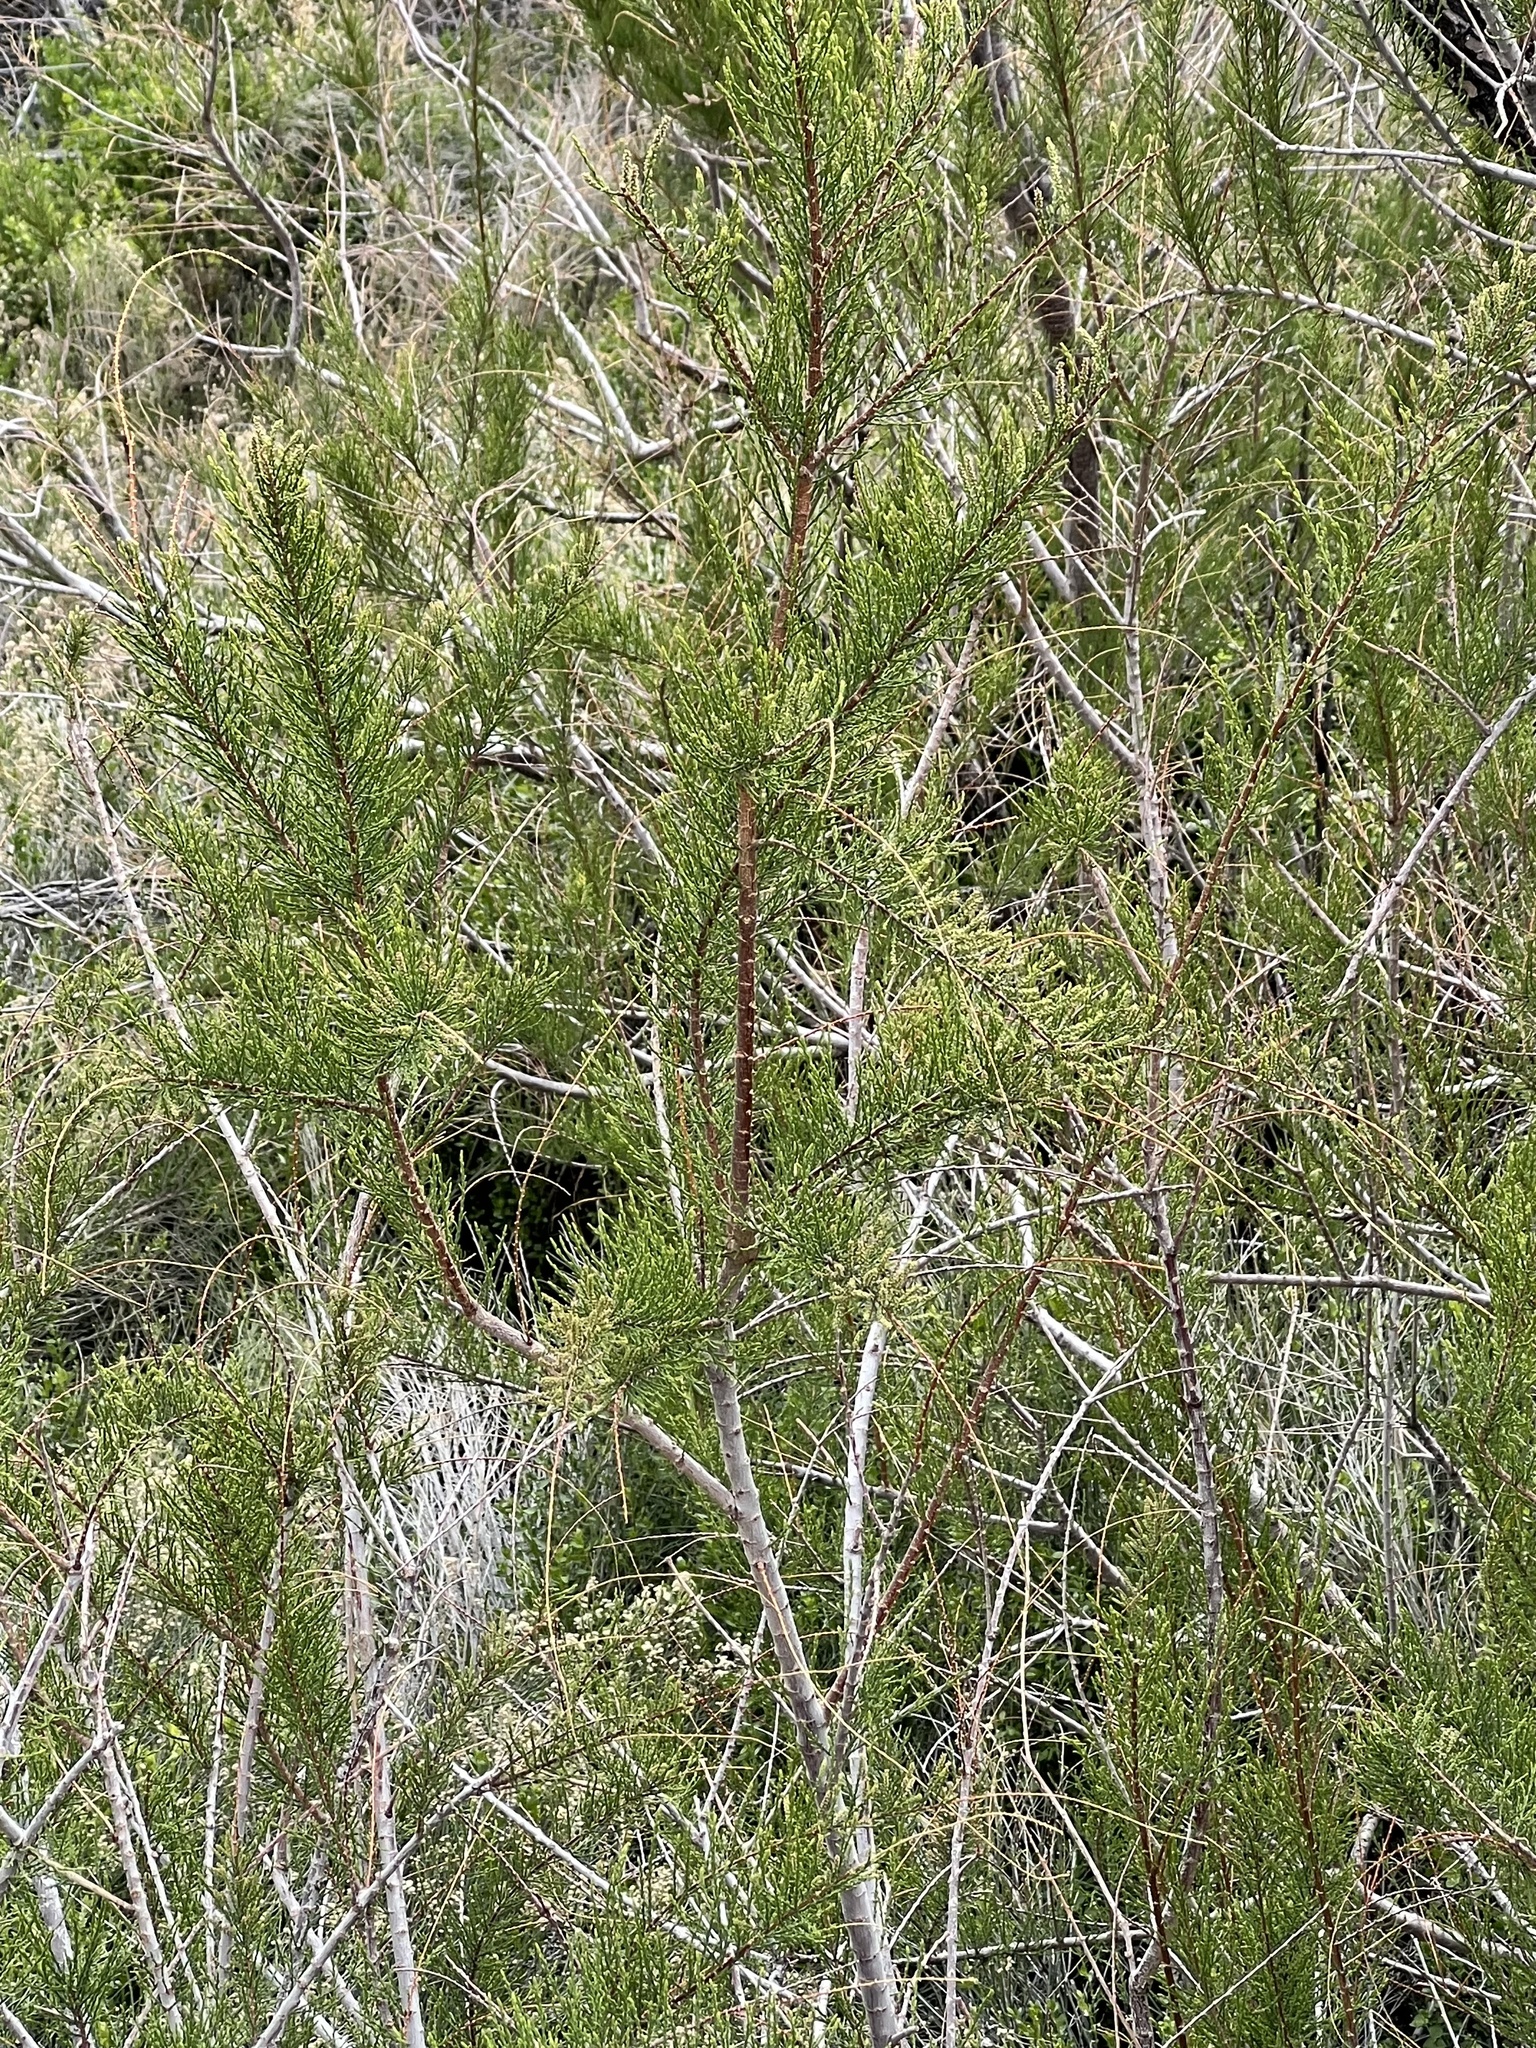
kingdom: Plantae
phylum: Tracheophyta
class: Magnoliopsida
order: Caryophyllales
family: Tamaricaceae
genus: Tamarix
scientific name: Tamarix
